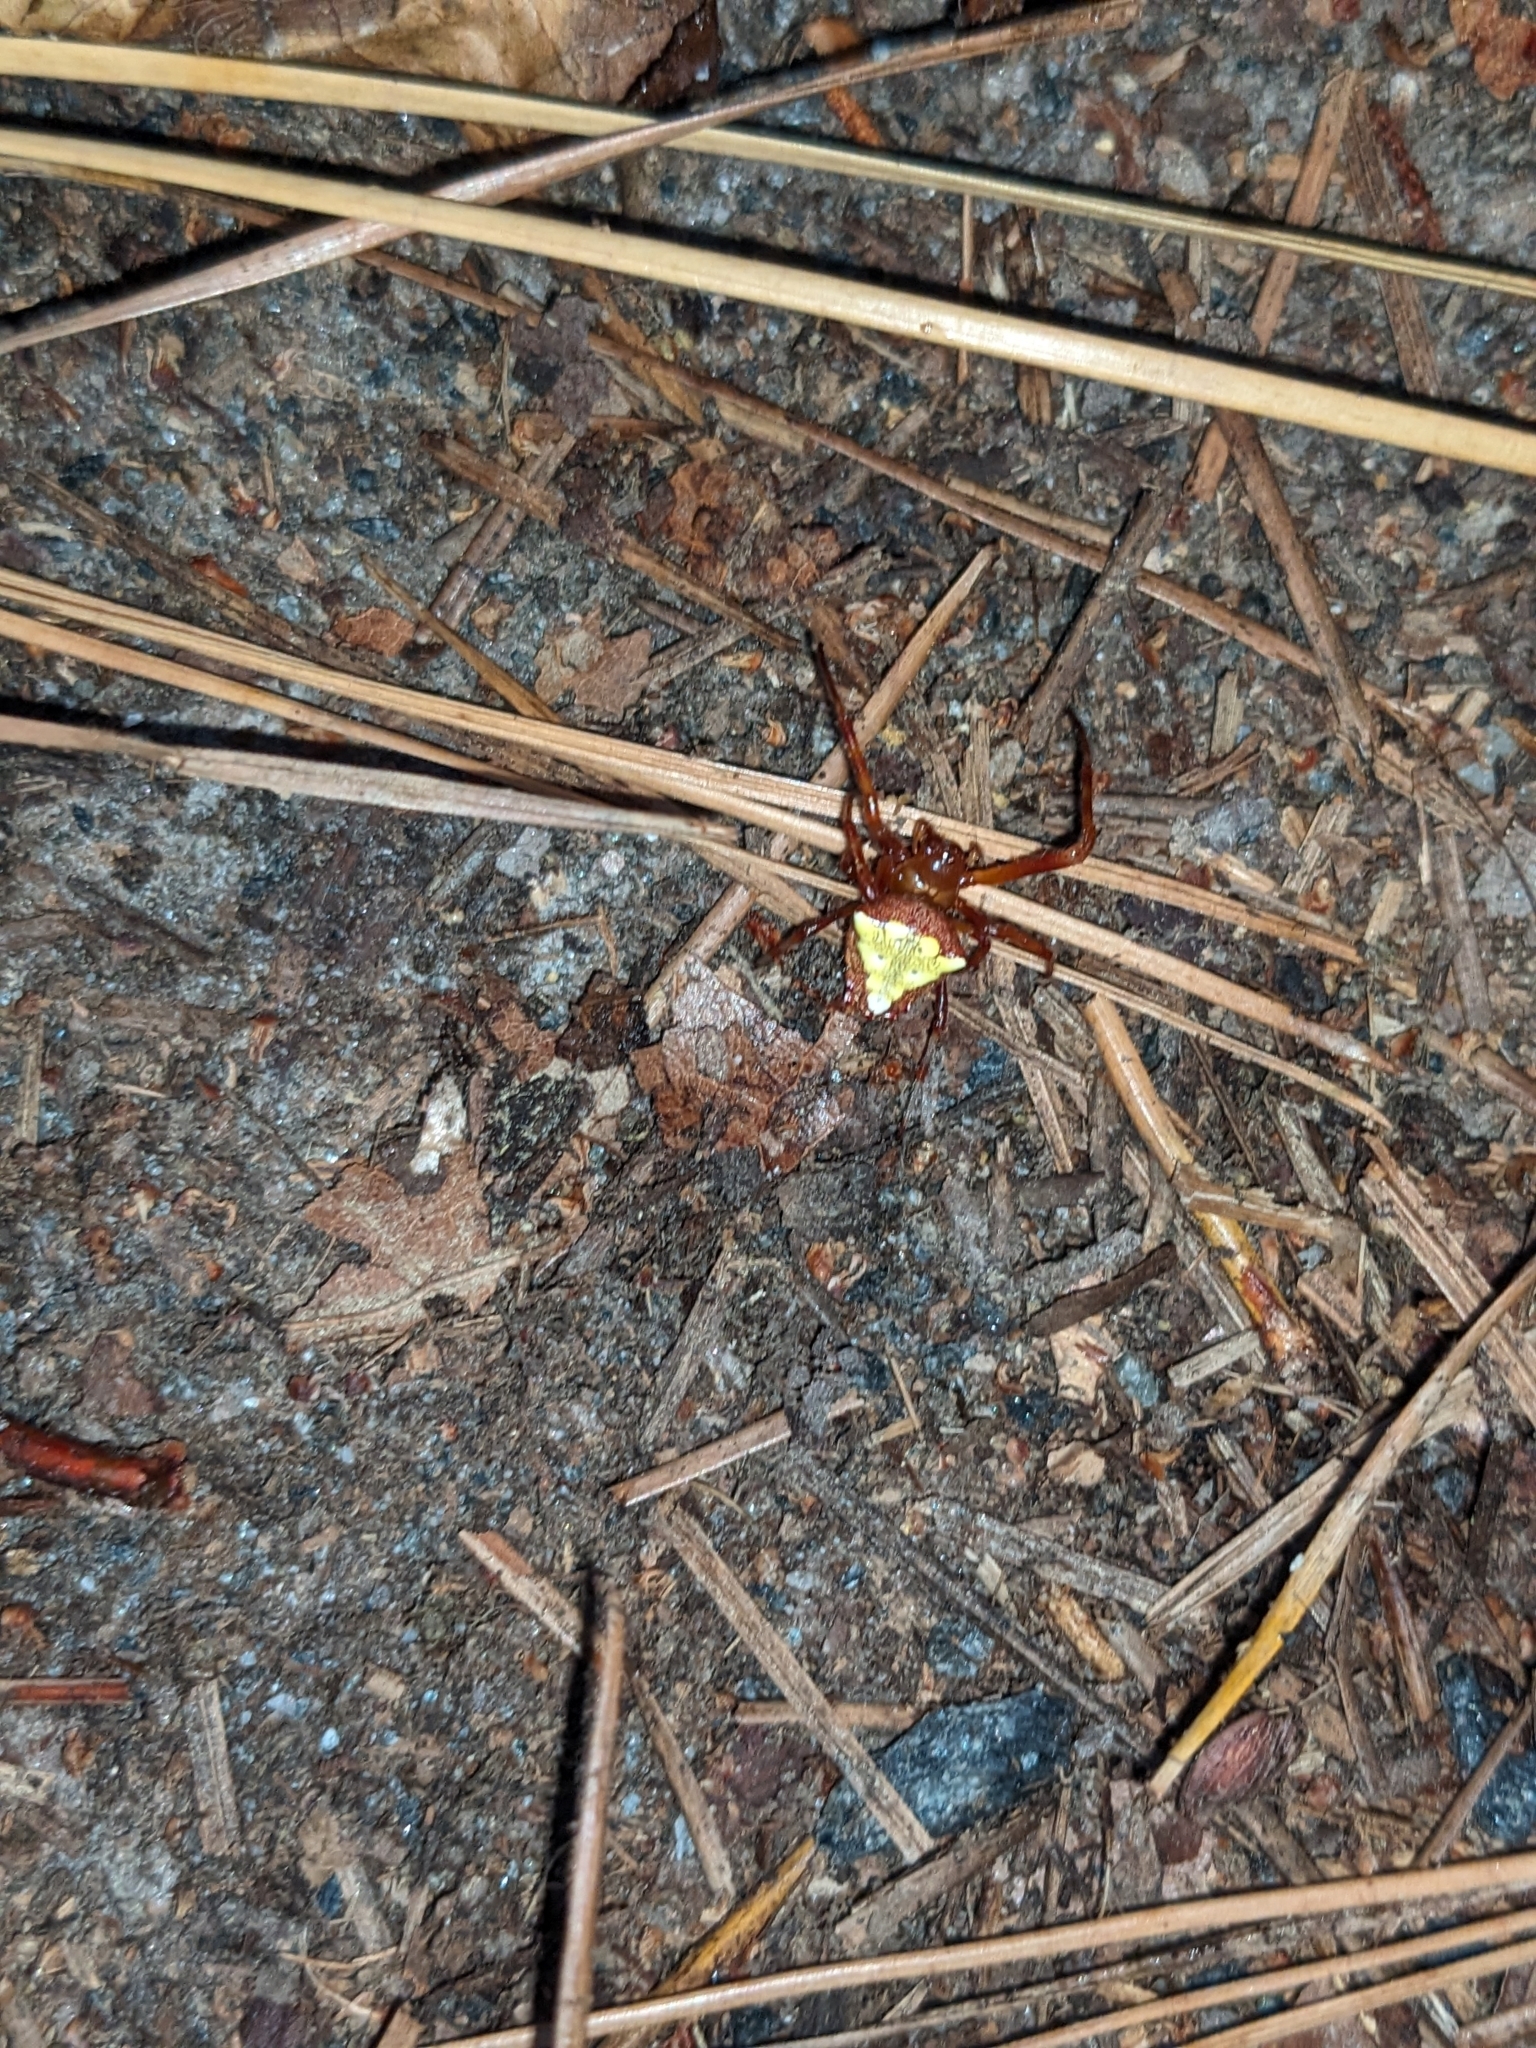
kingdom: Animalia
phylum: Arthropoda
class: Arachnida
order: Araneae
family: Araneidae
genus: Verrucosa
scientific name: Verrucosa arenata
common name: Orb weavers
